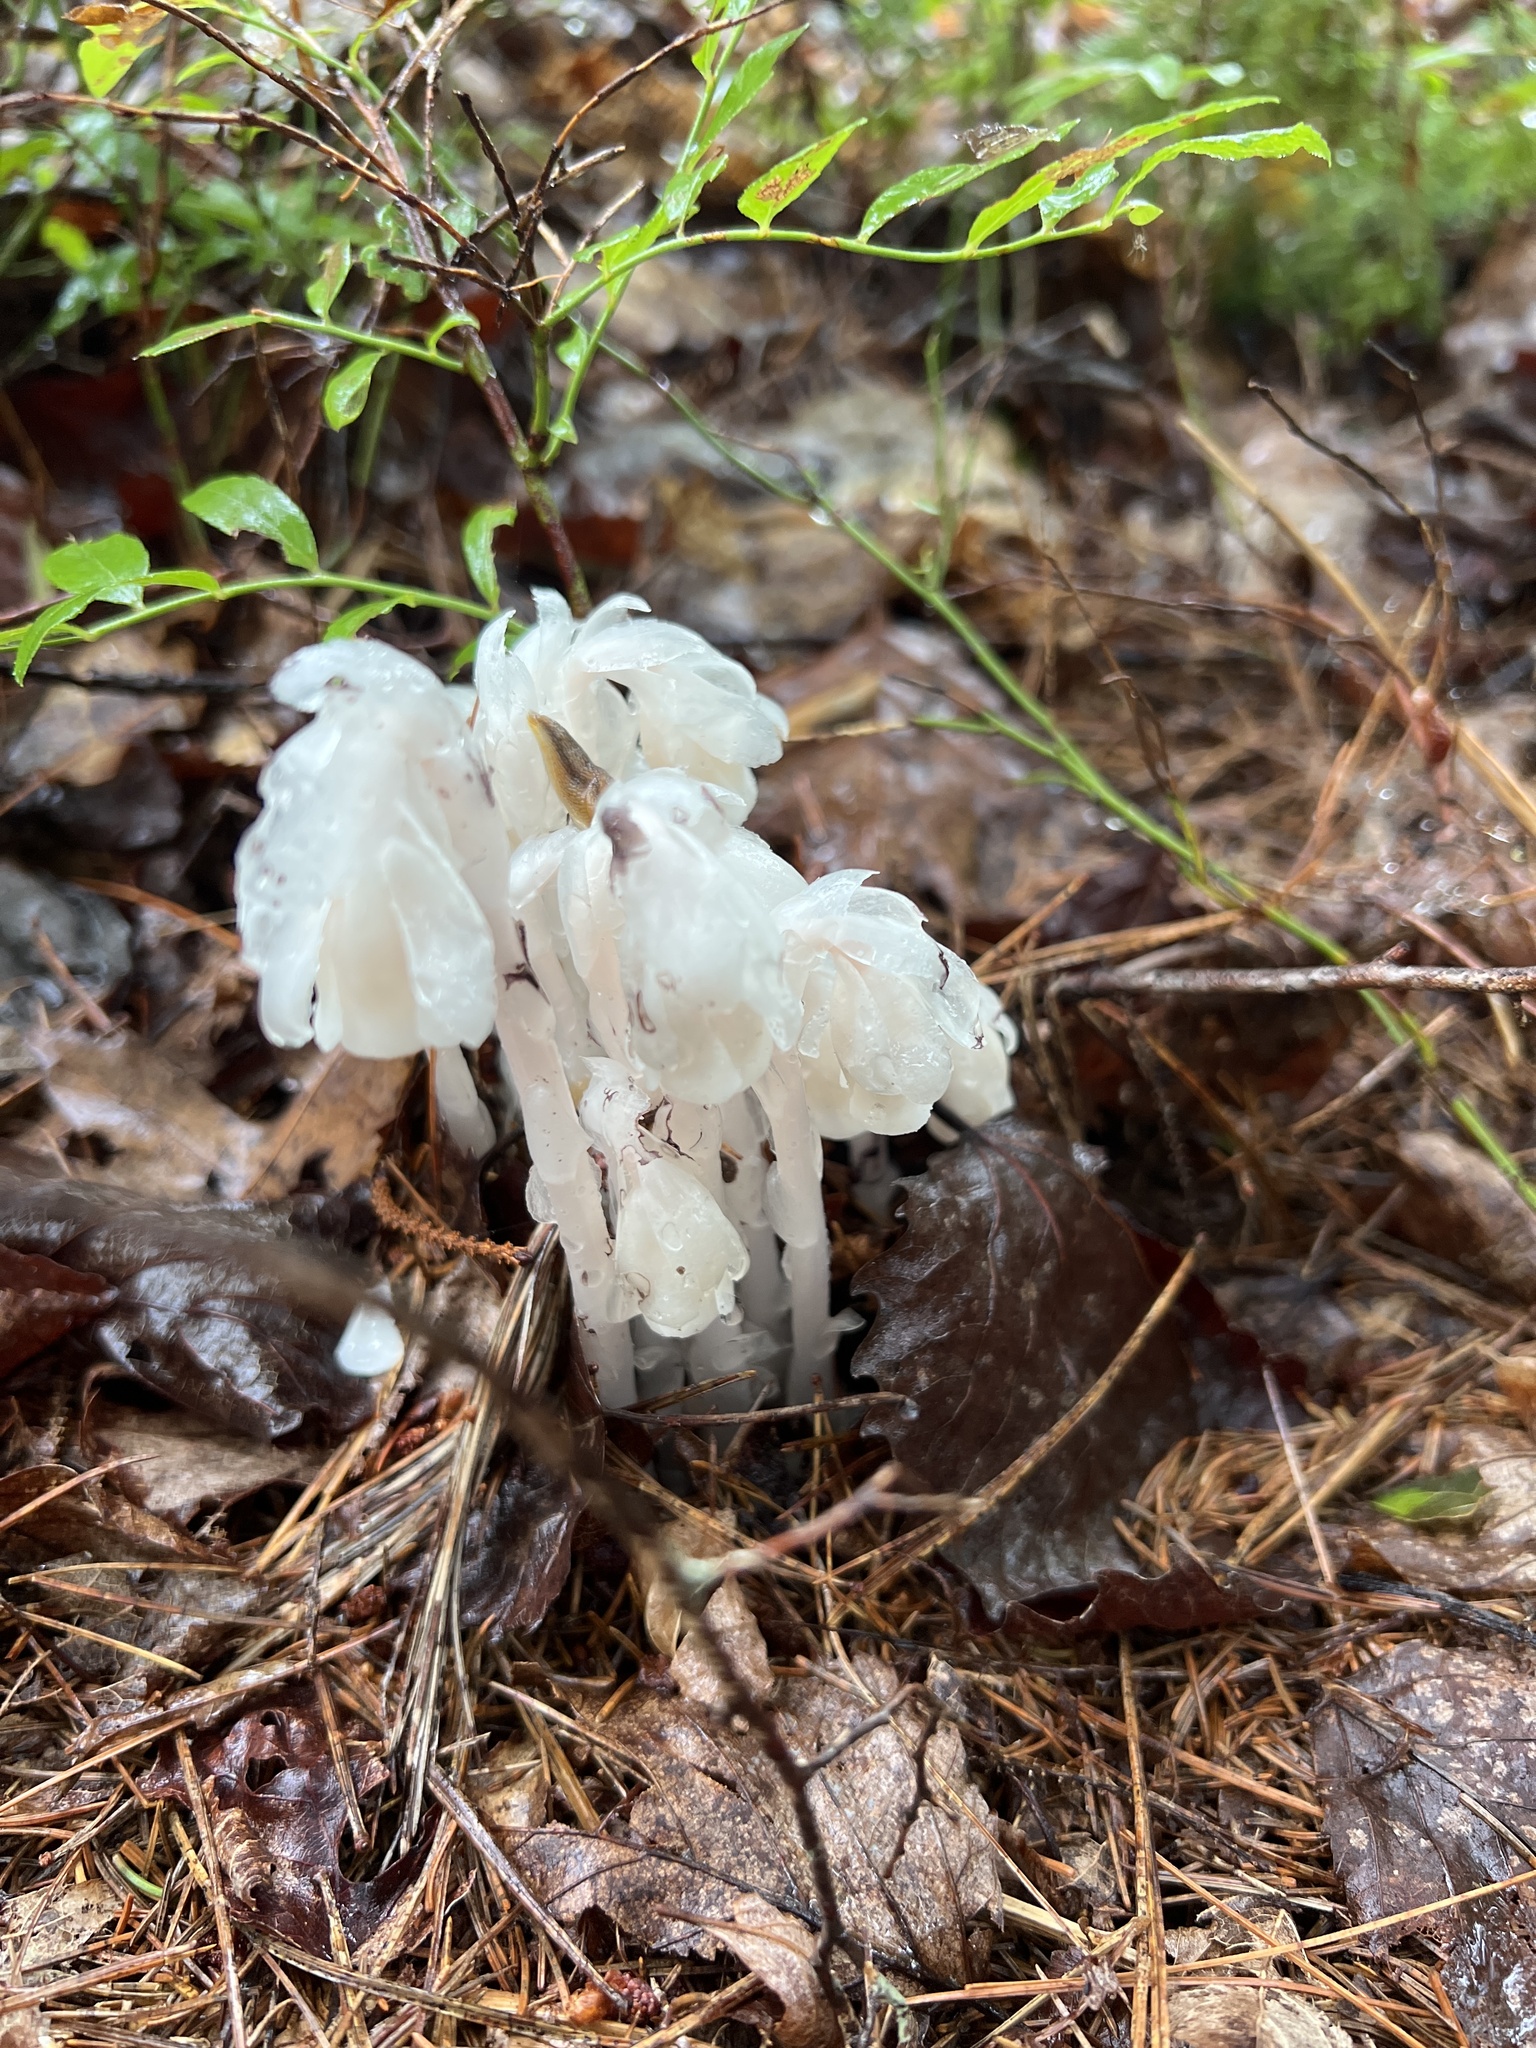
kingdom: Plantae
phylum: Tracheophyta
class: Magnoliopsida
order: Ericales
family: Ericaceae
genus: Monotropa
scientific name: Monotropa uniflora
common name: Convulsion root
